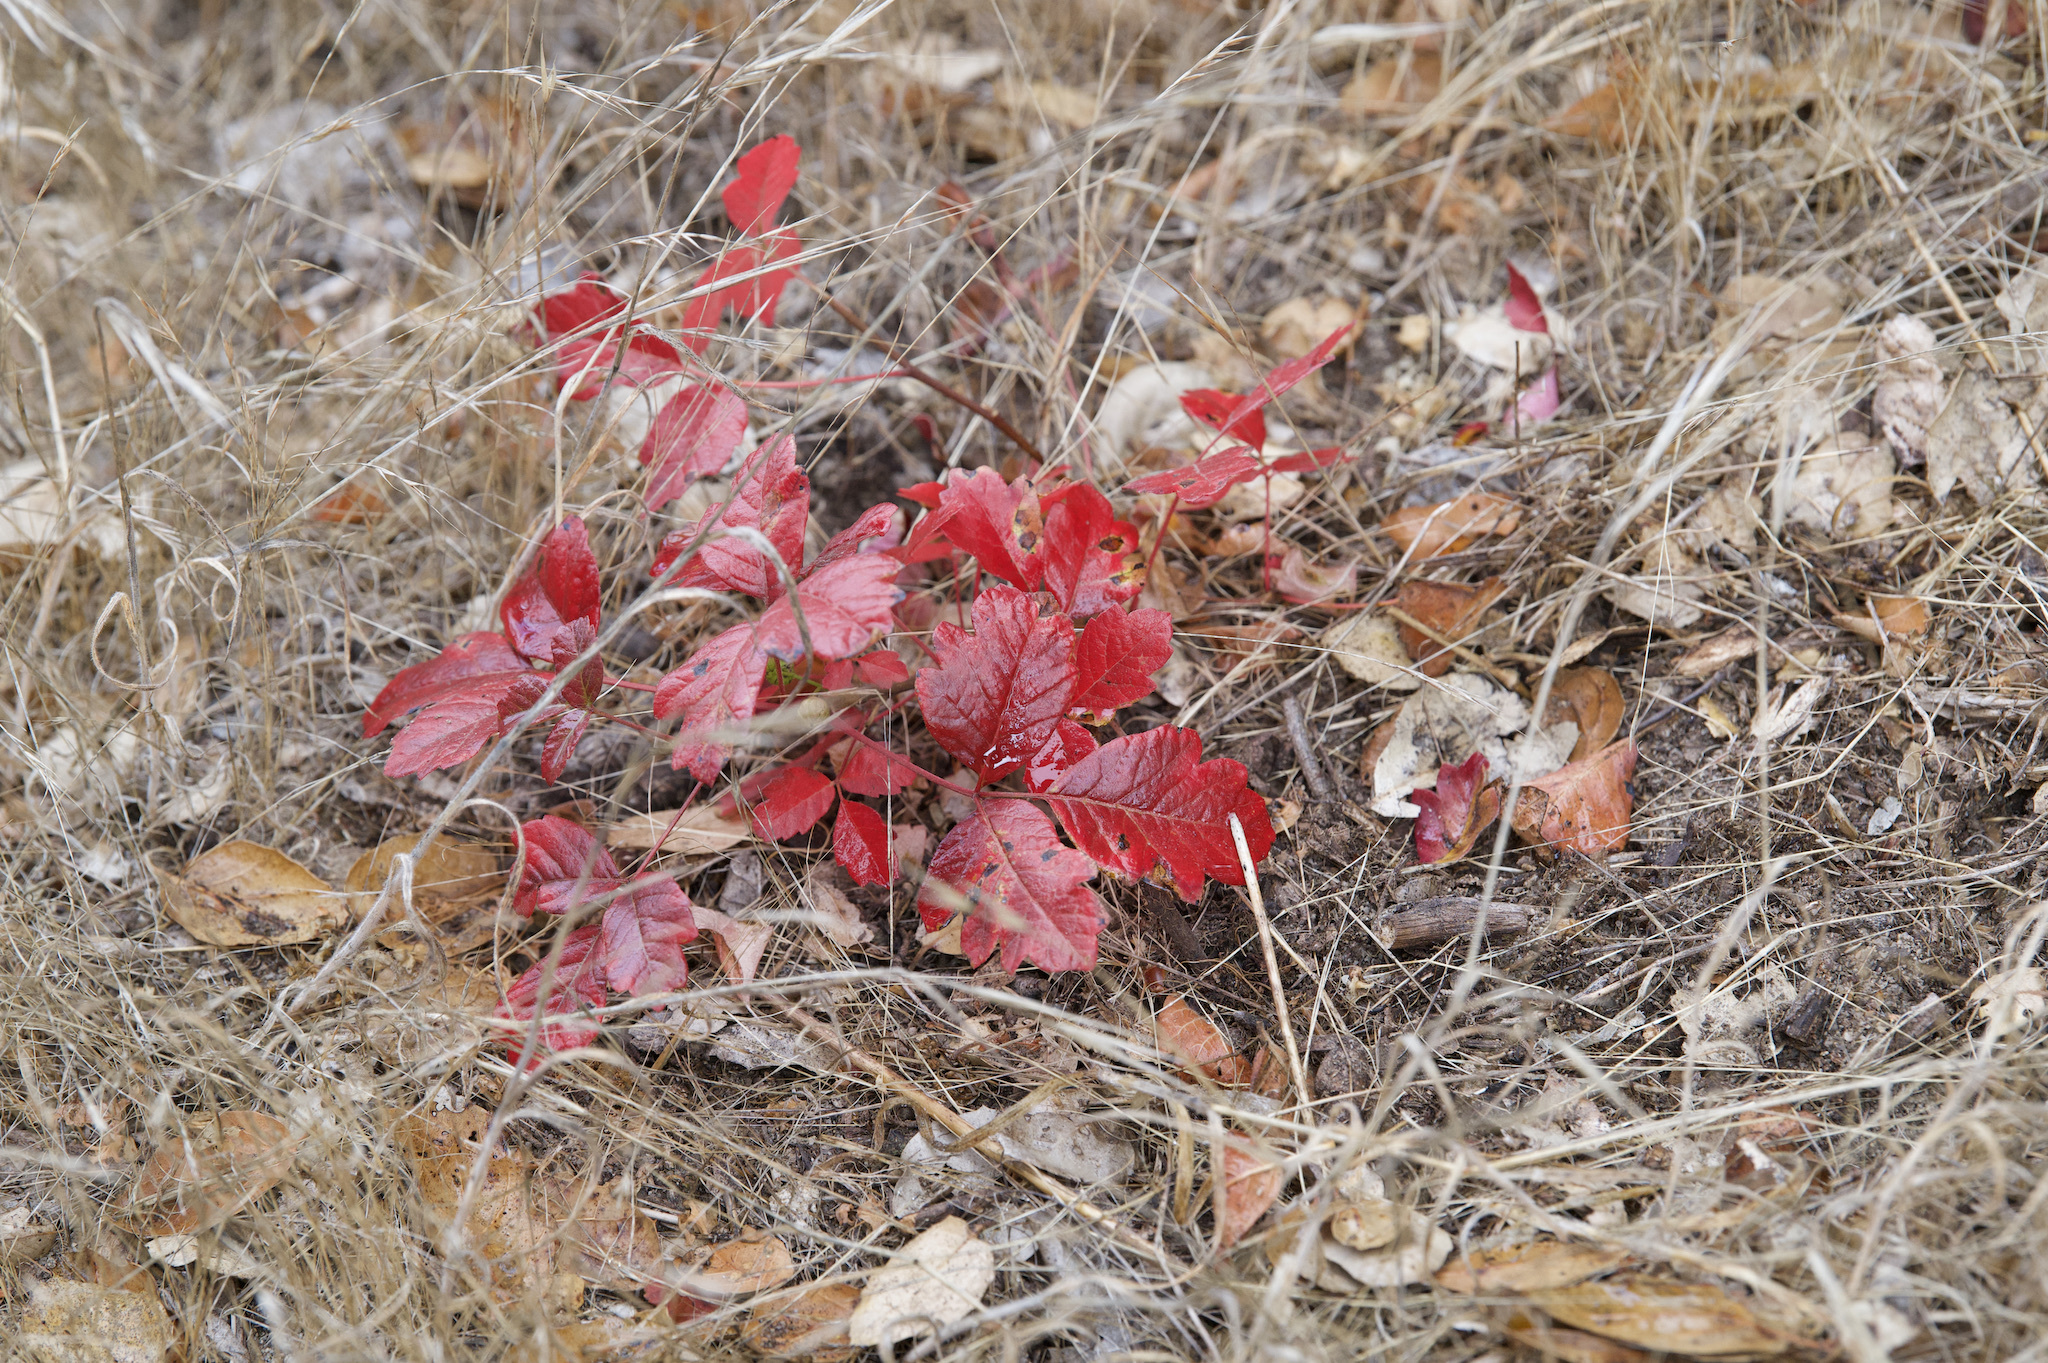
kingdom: Plantae
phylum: Tracheophyta
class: Magnoliopsida
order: Sapindales
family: Anacardiaceae
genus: Toxicodendron
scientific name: Toxicodendron diversilobum
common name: Pacific poison-oak
